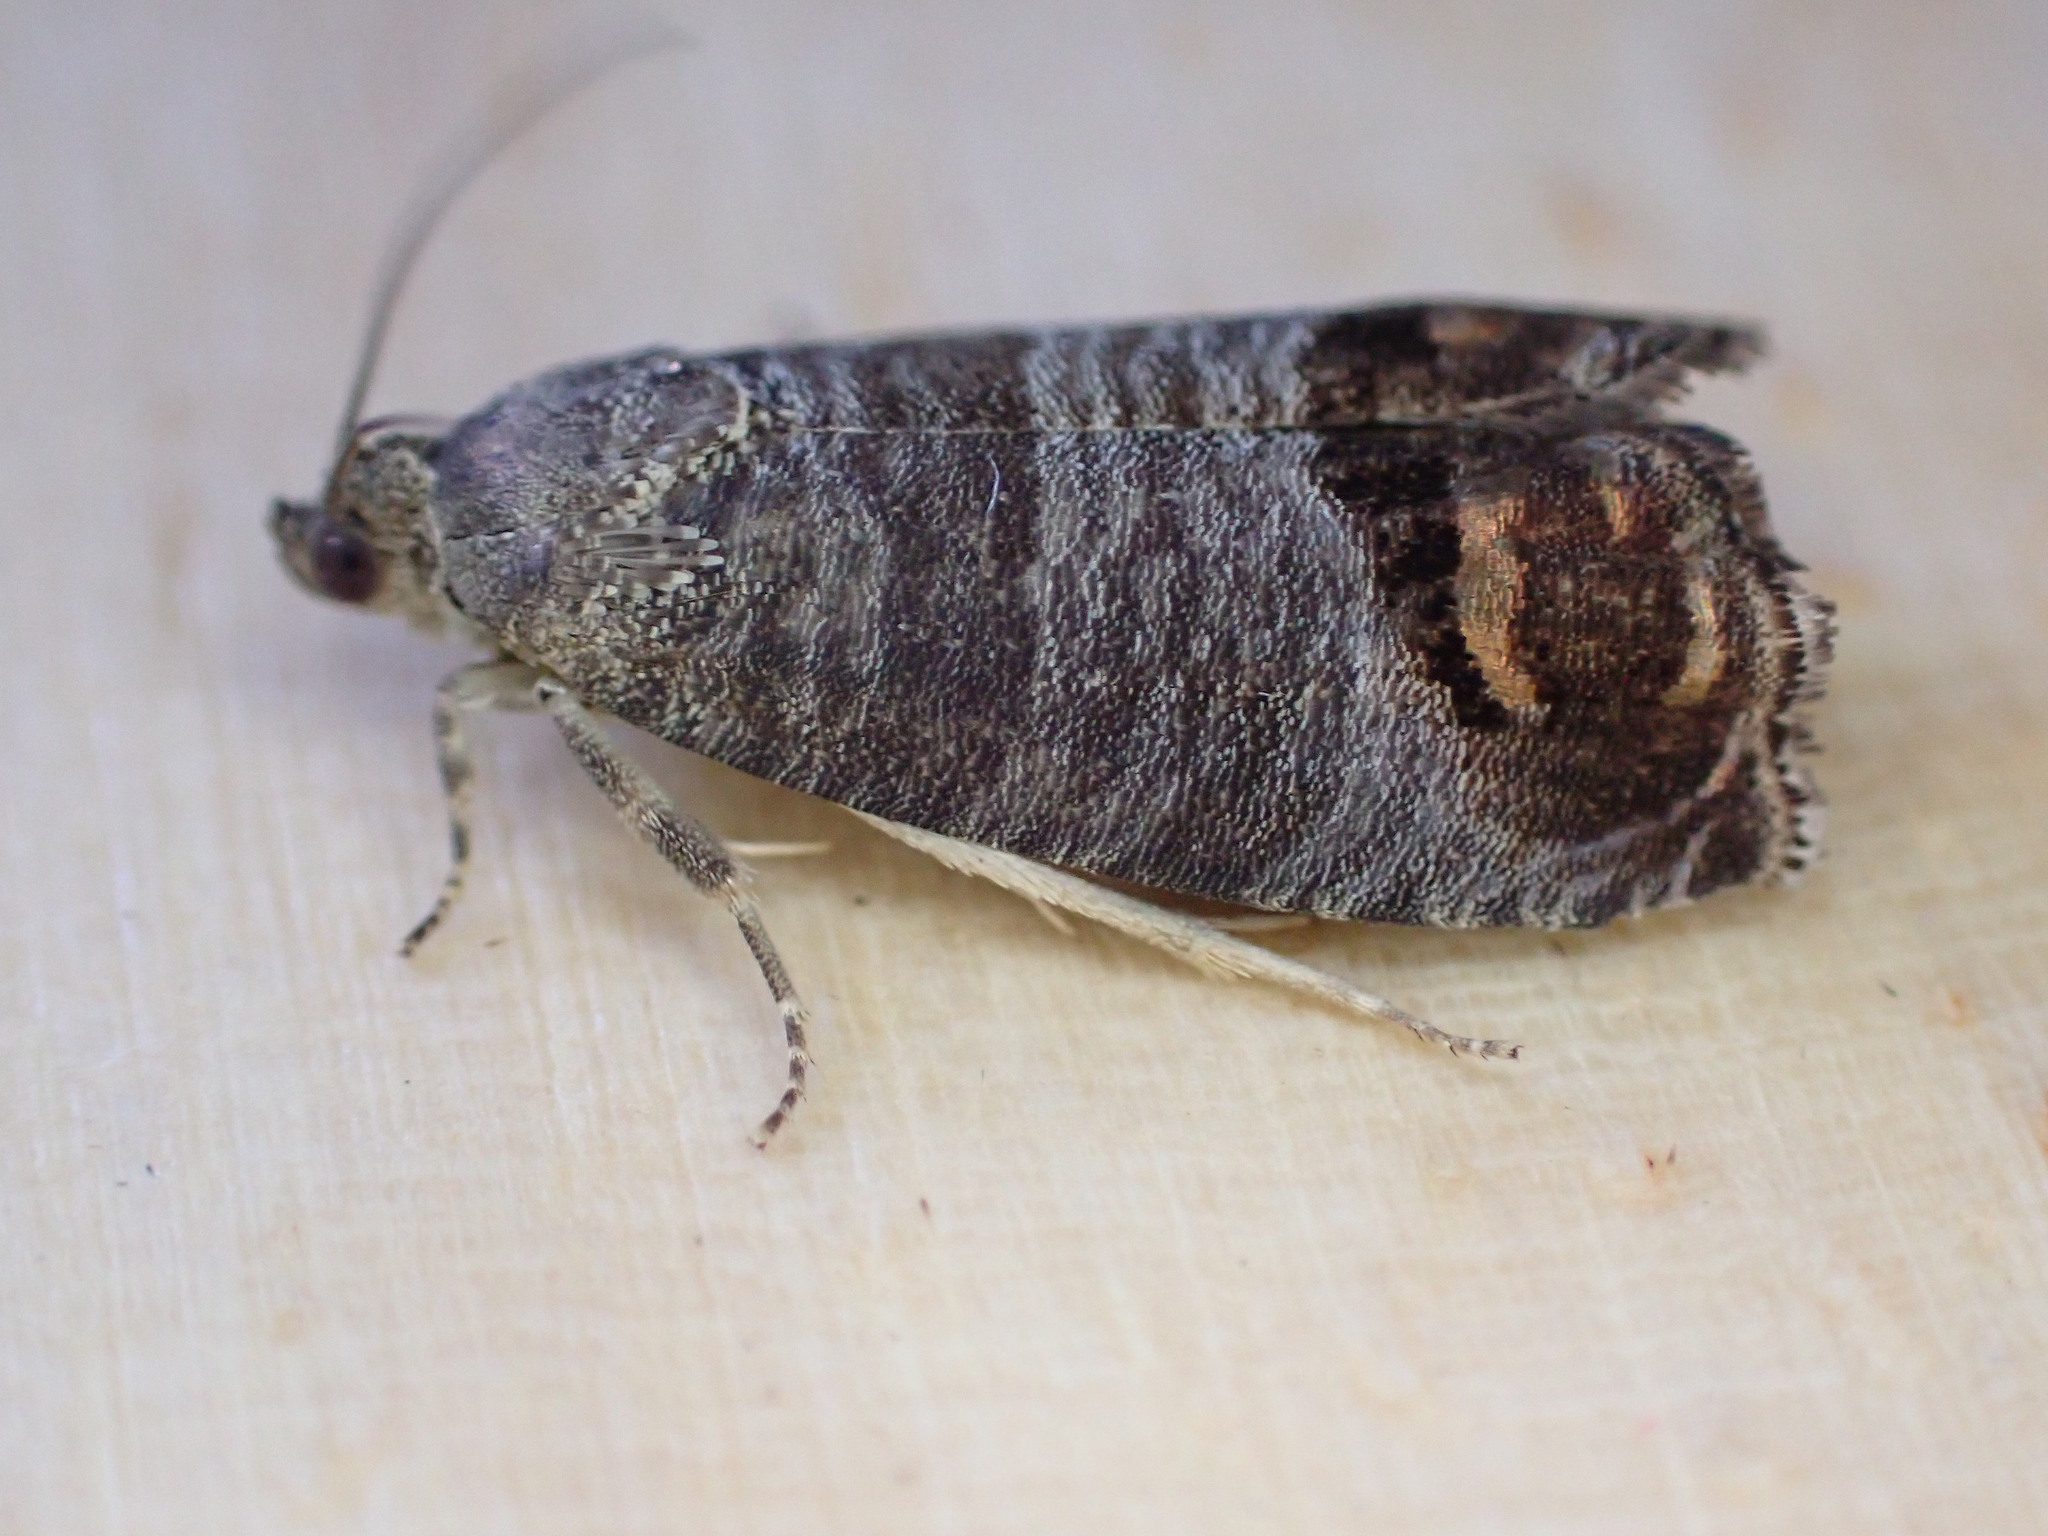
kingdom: Animalia
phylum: Arthropoda
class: Insecta
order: Lepidoptera
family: Tortricidae
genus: Cydia
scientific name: Cydia pomonella
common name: Codling moth
